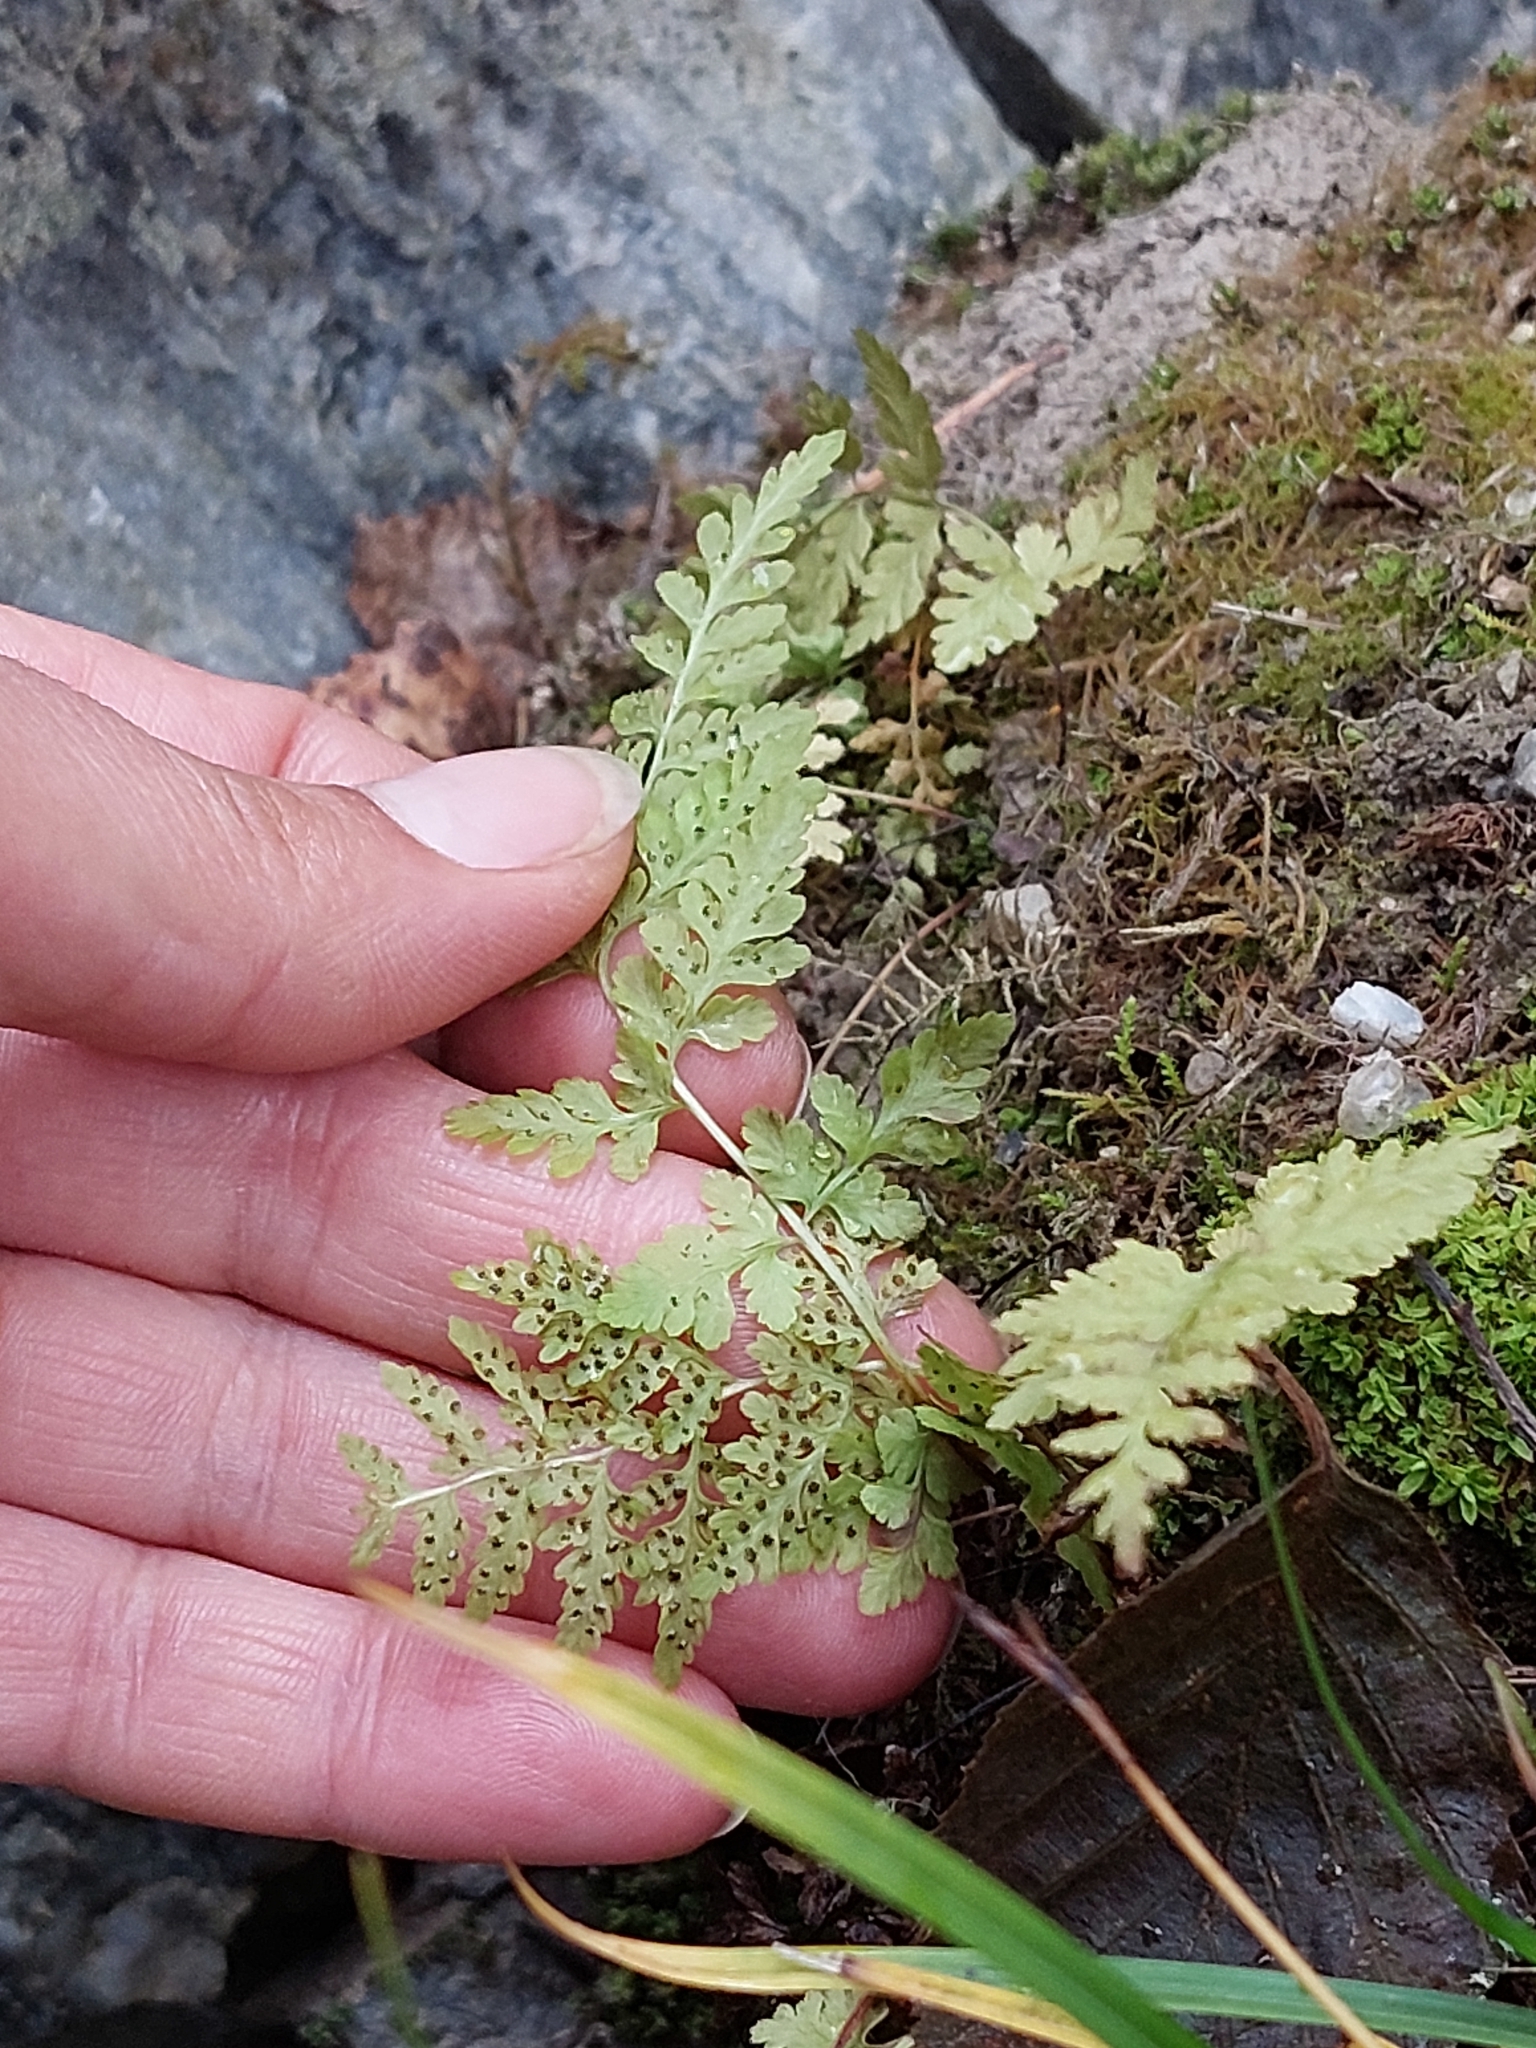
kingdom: Plantae
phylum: Tracheophyta
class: Polypodiopsida
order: Polypodiales
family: Cystopteridaceae
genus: Cystopteris
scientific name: Cystopteris fragilis
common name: Brittle bladder fern
